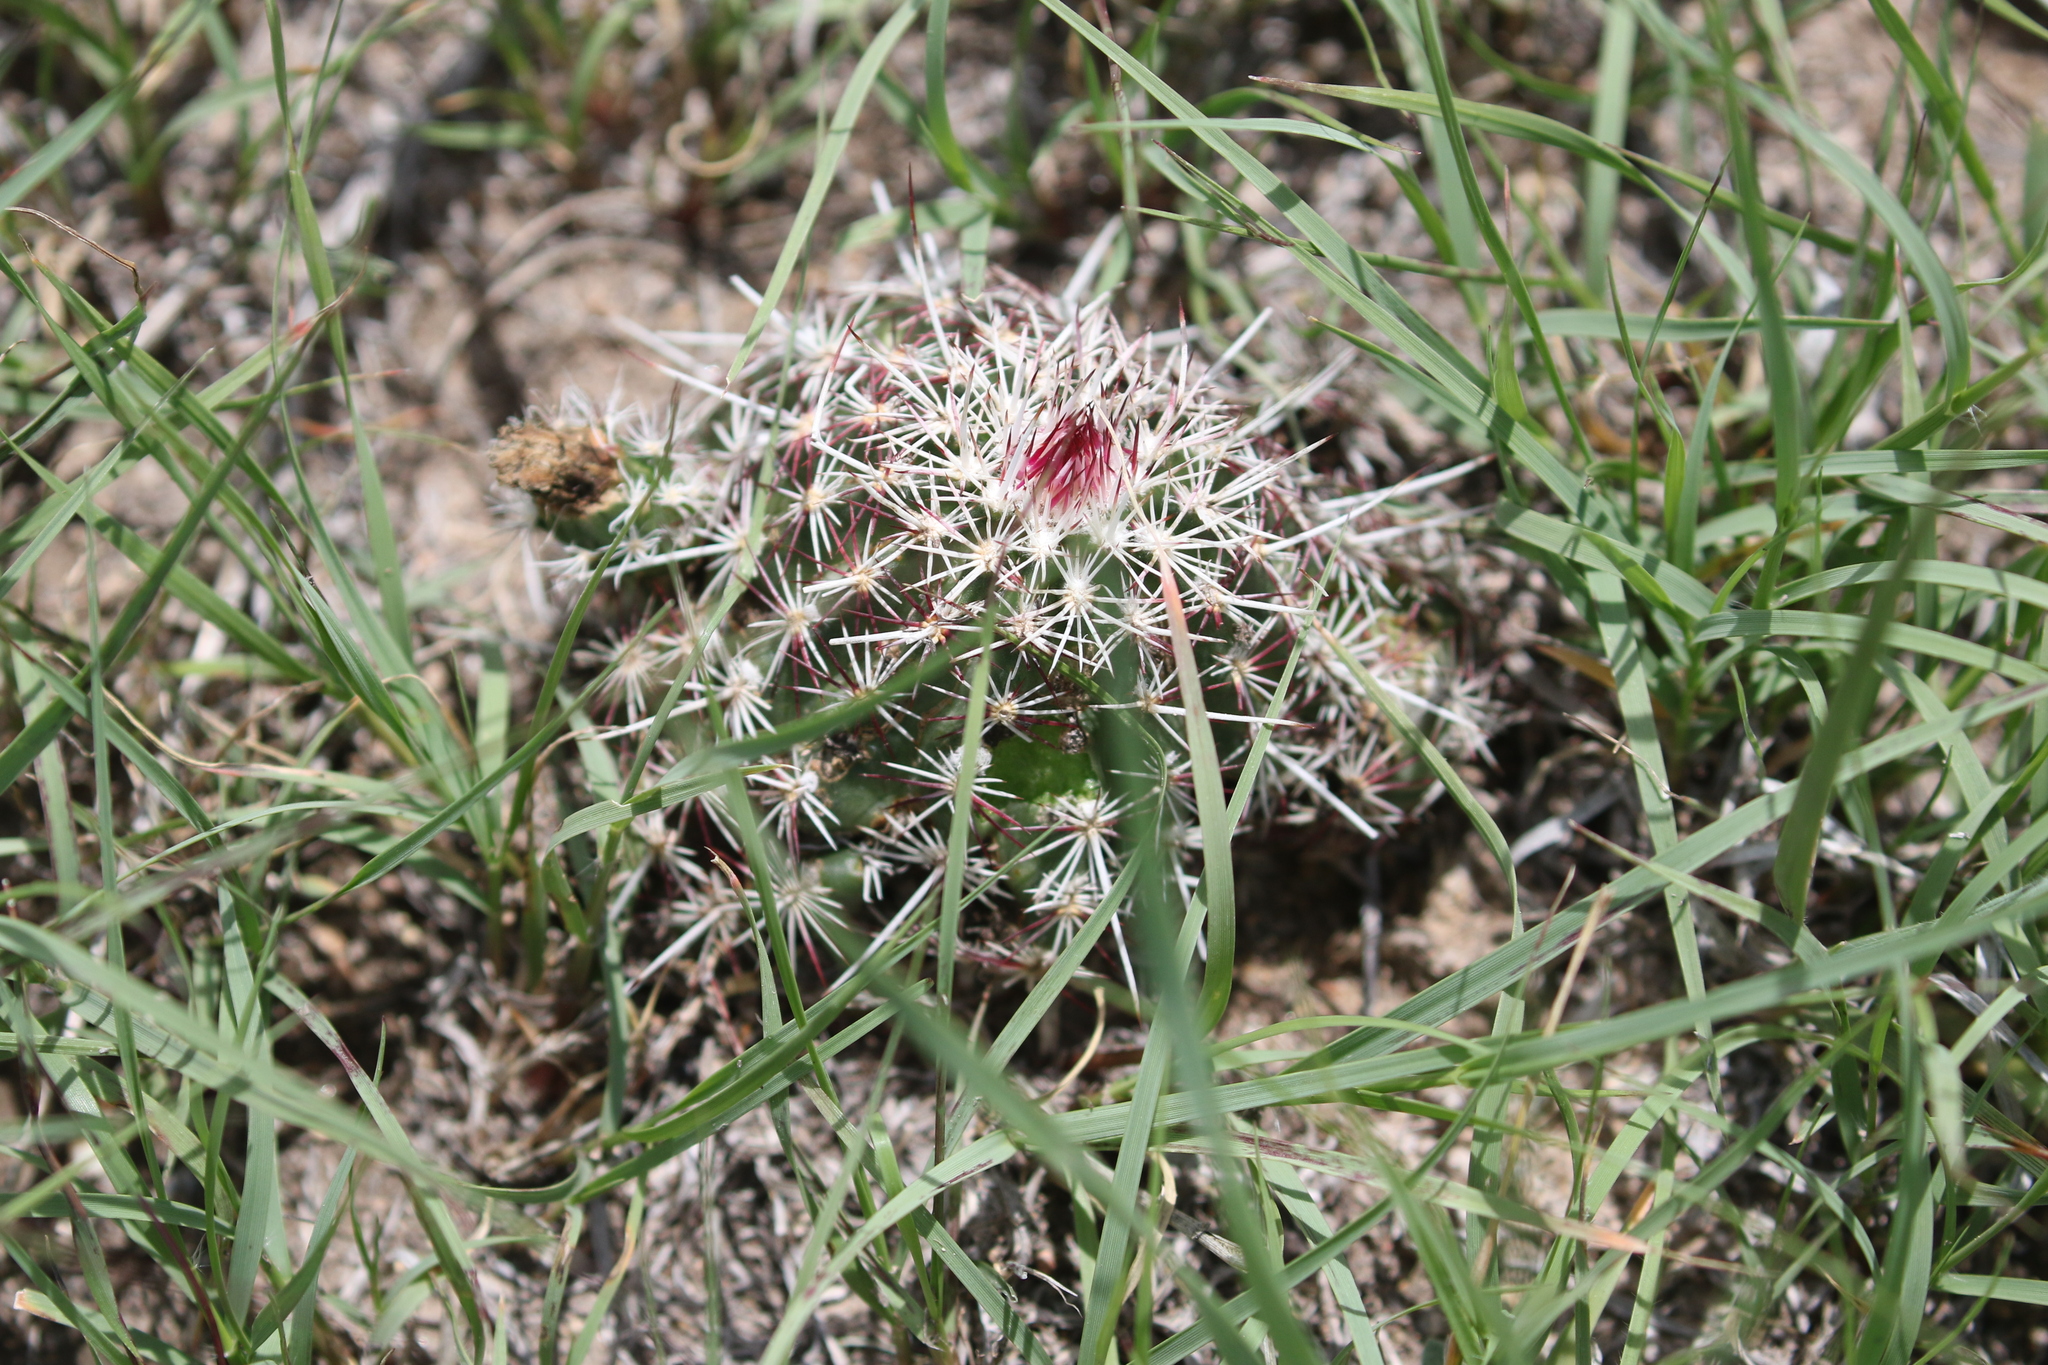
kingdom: Plantae
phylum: Tracheophyta
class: Magnoliopsida
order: Caryophyllales
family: Cactaceae
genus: Echinocereus
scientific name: Echinocereus viridiflorus
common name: Nylon hedgehog cactus
